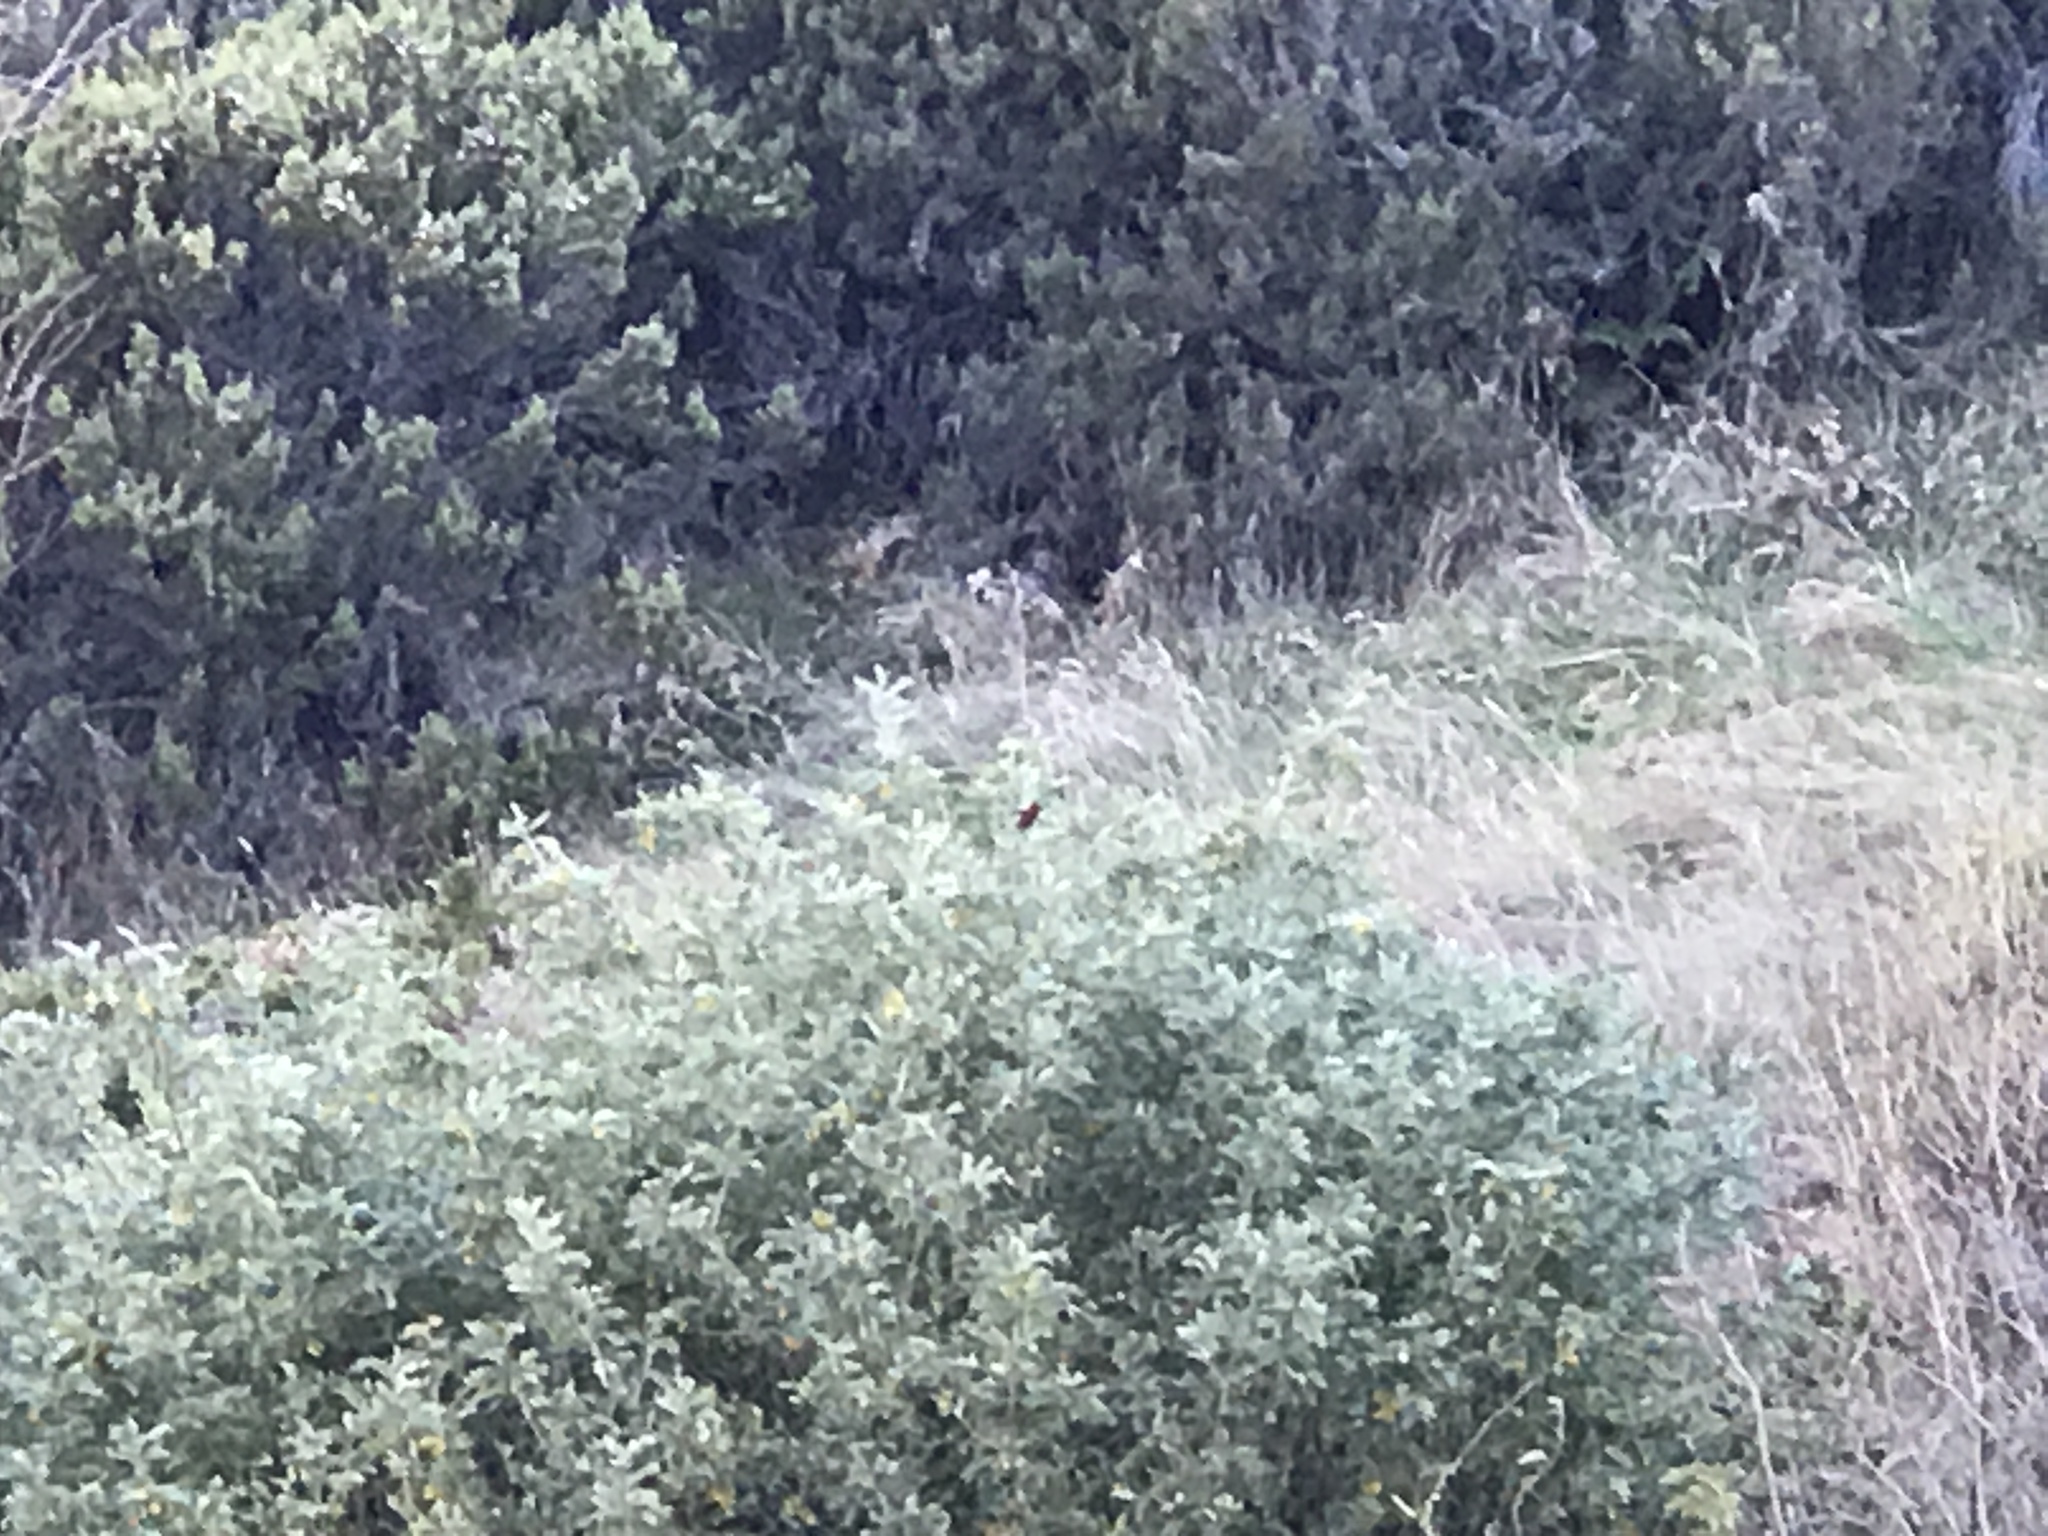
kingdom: Animalia
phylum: Chordata
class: Aves
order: Passeriformes
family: Fringillidae
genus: Himatione
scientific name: Himatione sanguinea
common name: Apapane
